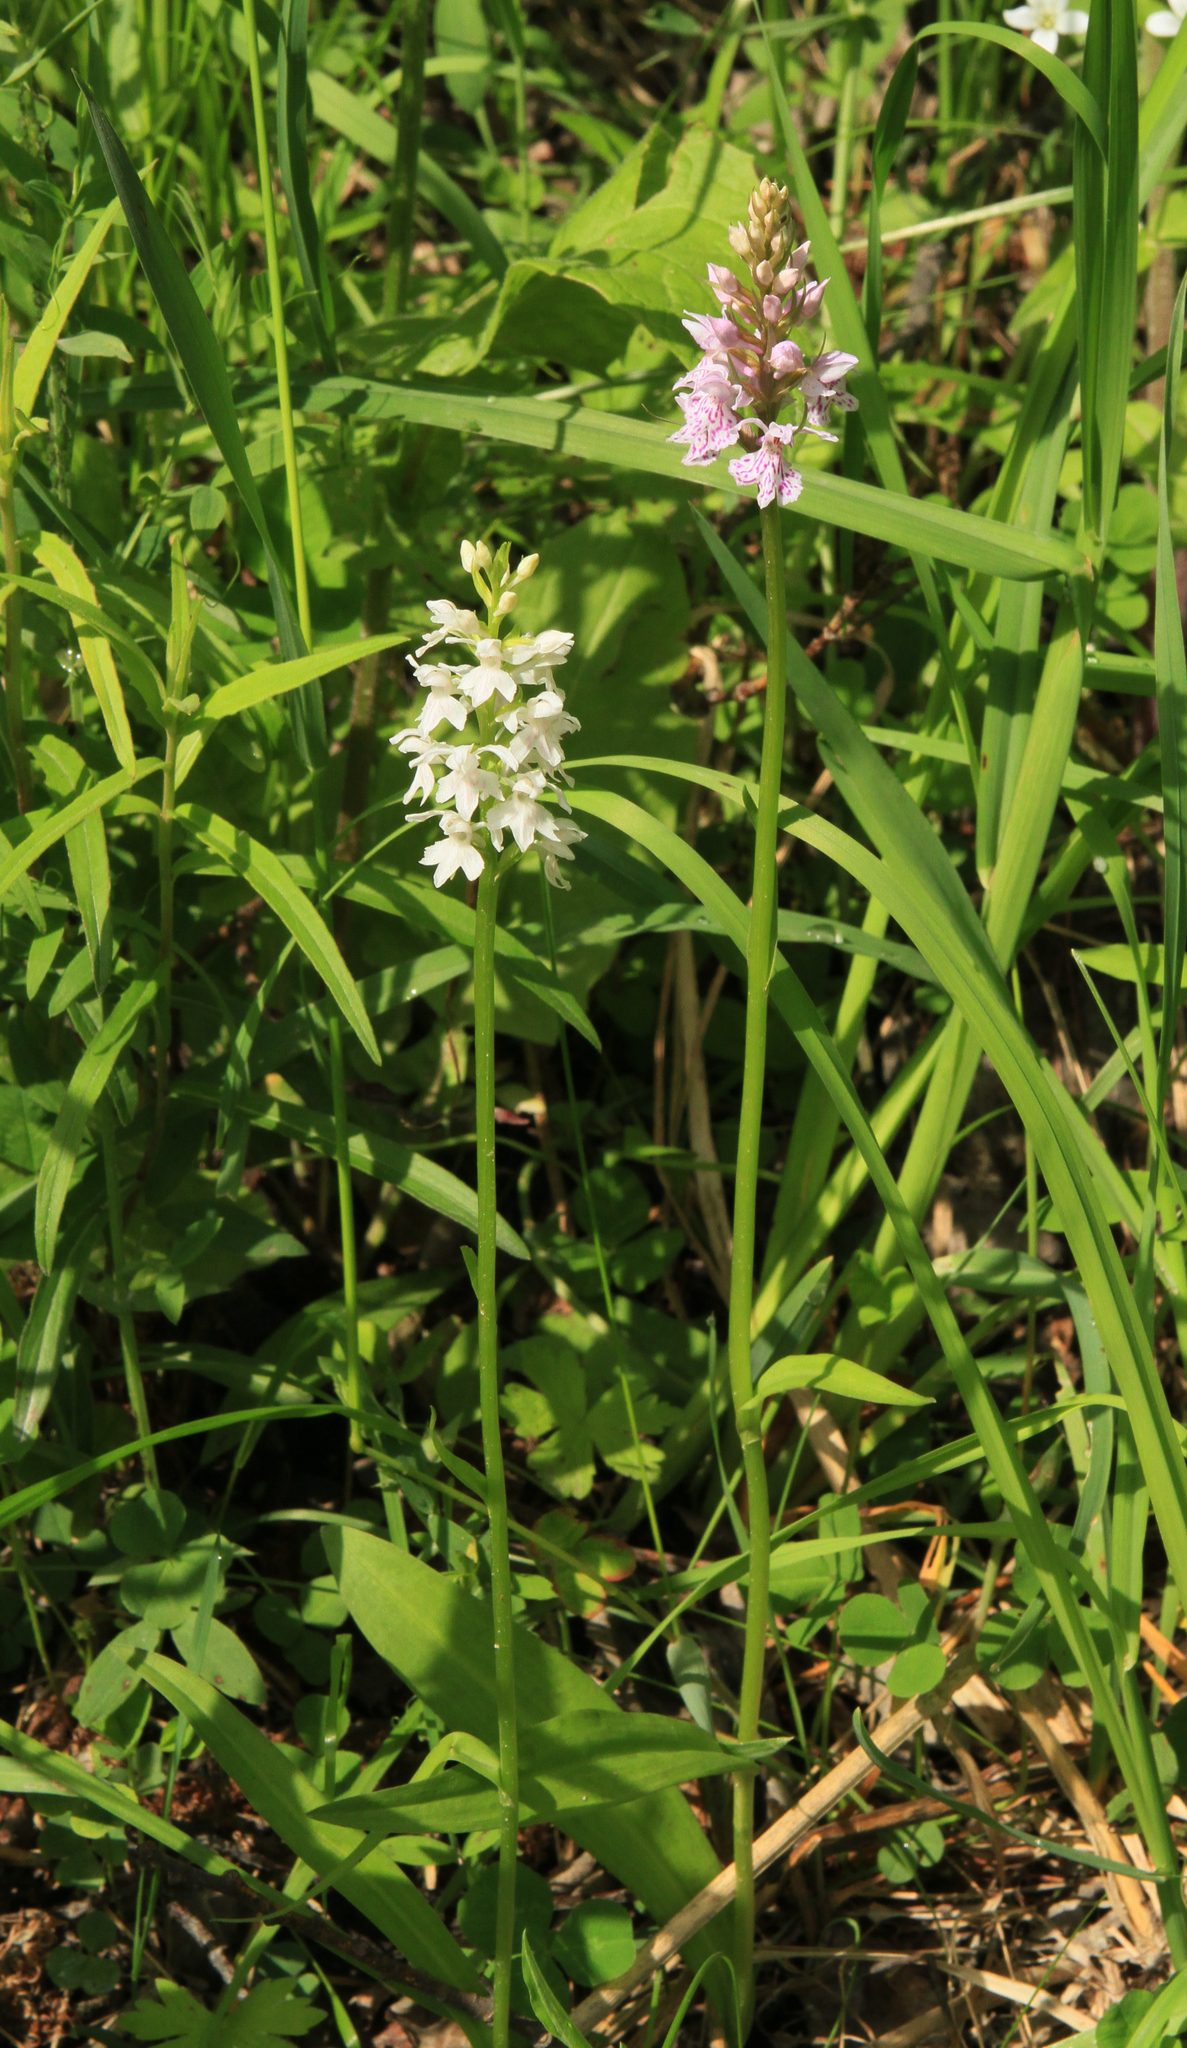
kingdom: Plantae
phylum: Tracheophyta
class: Liliopsida
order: Asparagales
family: Orchidaceae
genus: Dactylorhiza
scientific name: Dactylorhiza maculata
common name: Heath spotted-orchid
